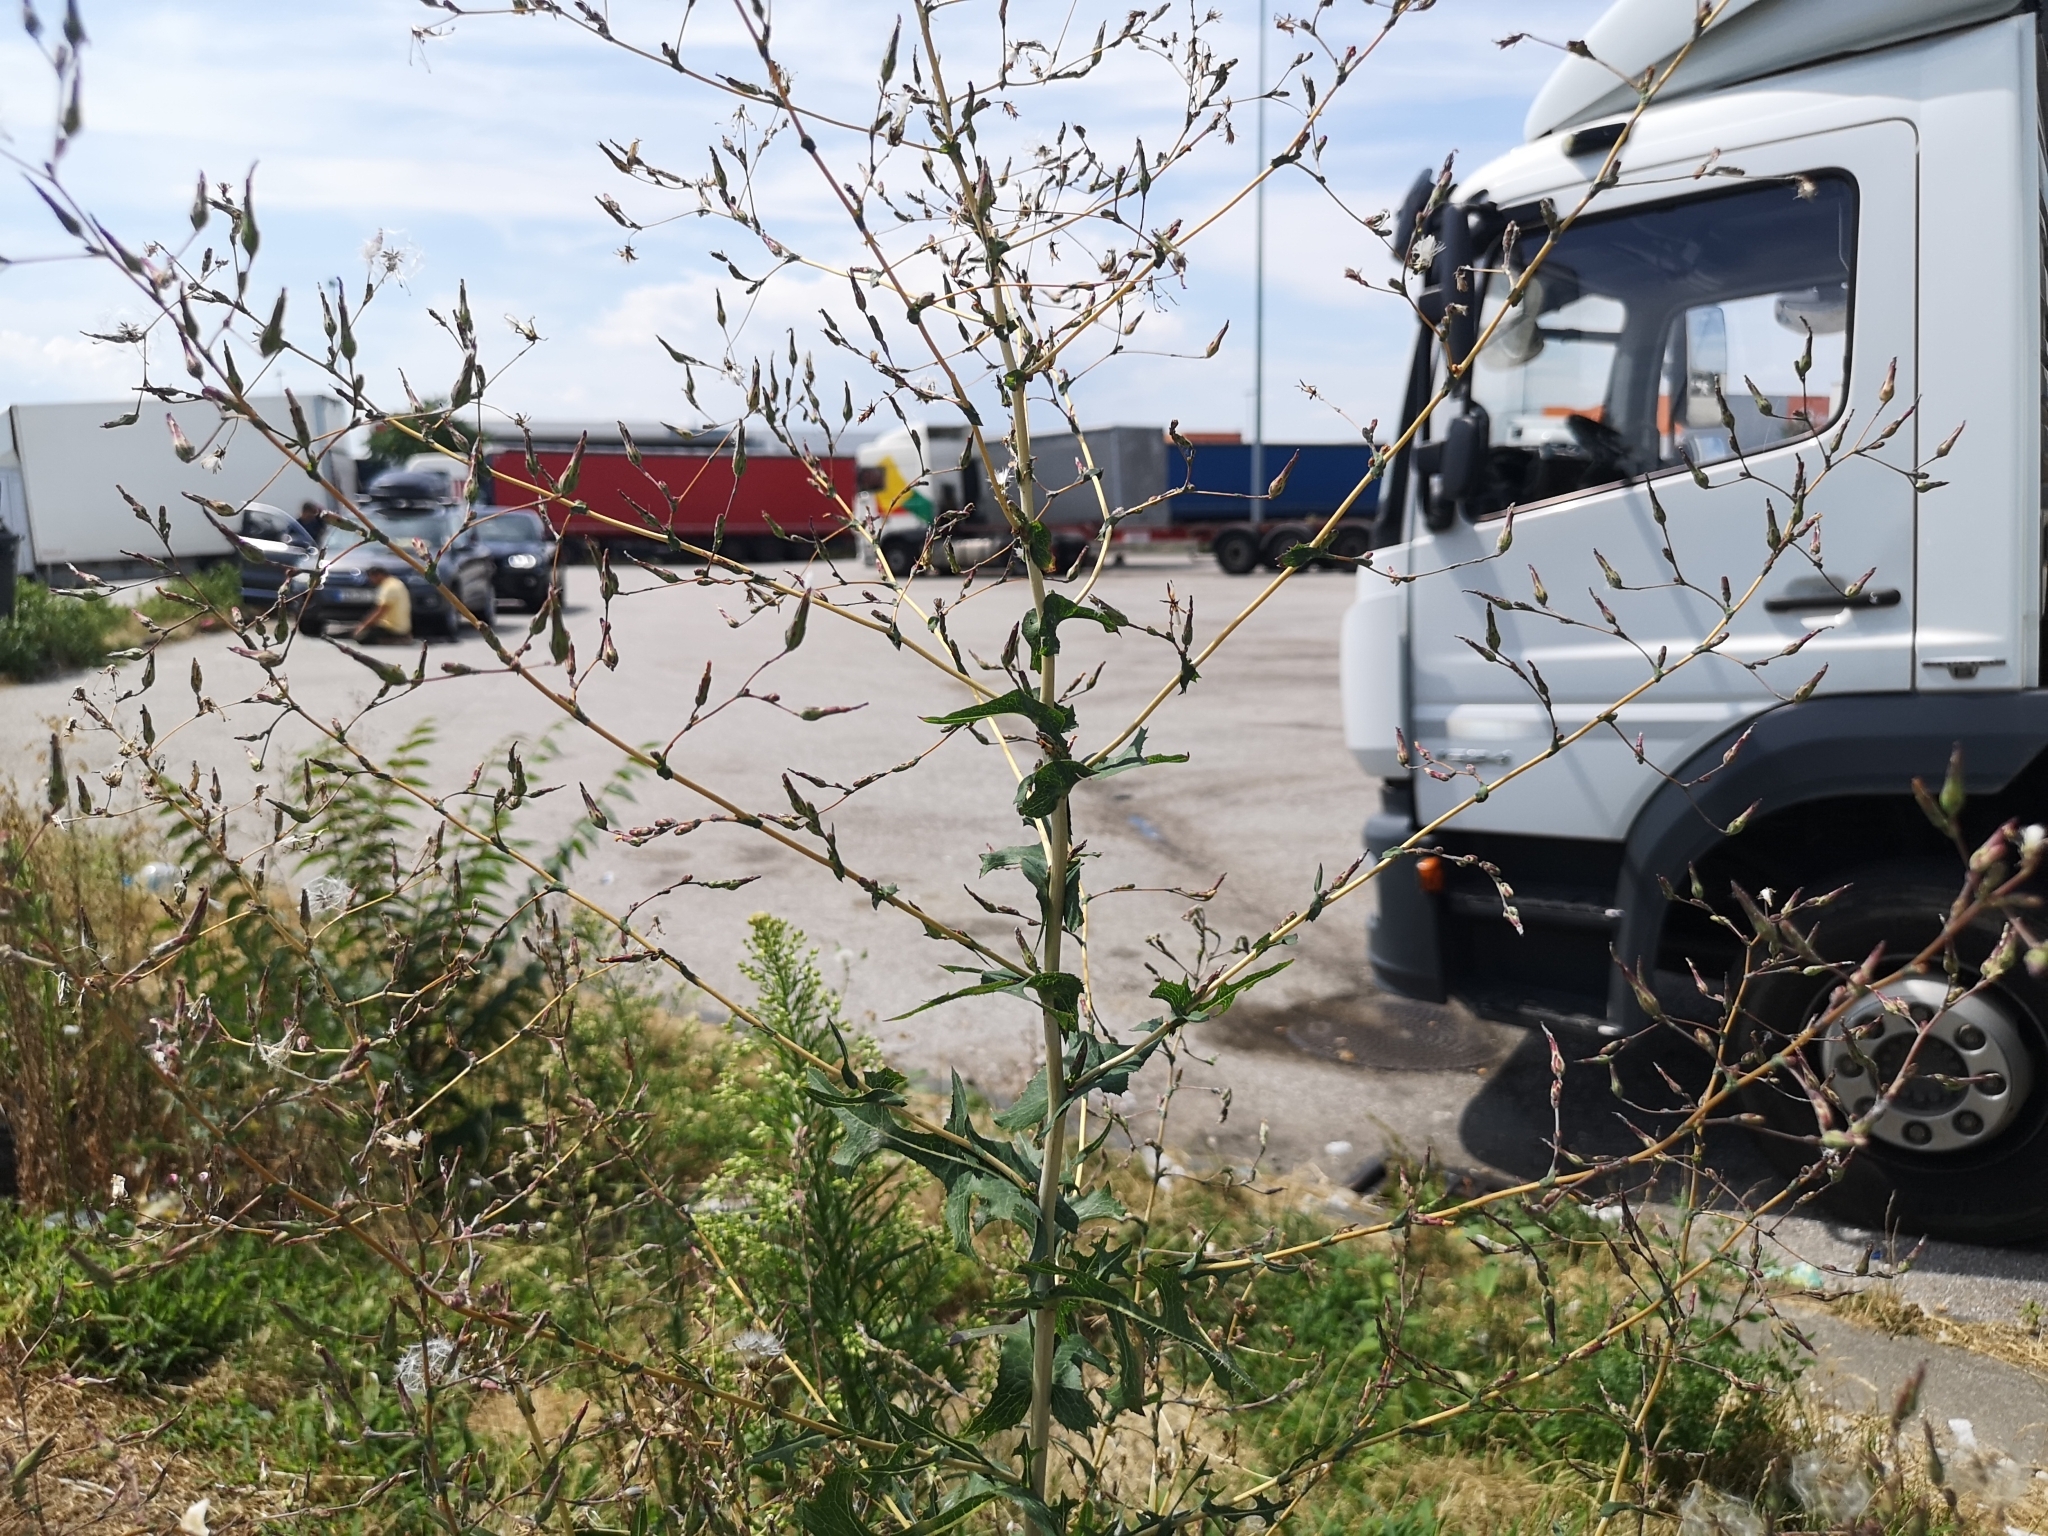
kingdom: Plantae
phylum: Tracheophyta
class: Magnoliopsida
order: Asterales
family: Asteraceae
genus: Lactuca
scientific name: Lactuca serriola
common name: Prickly lettuce
